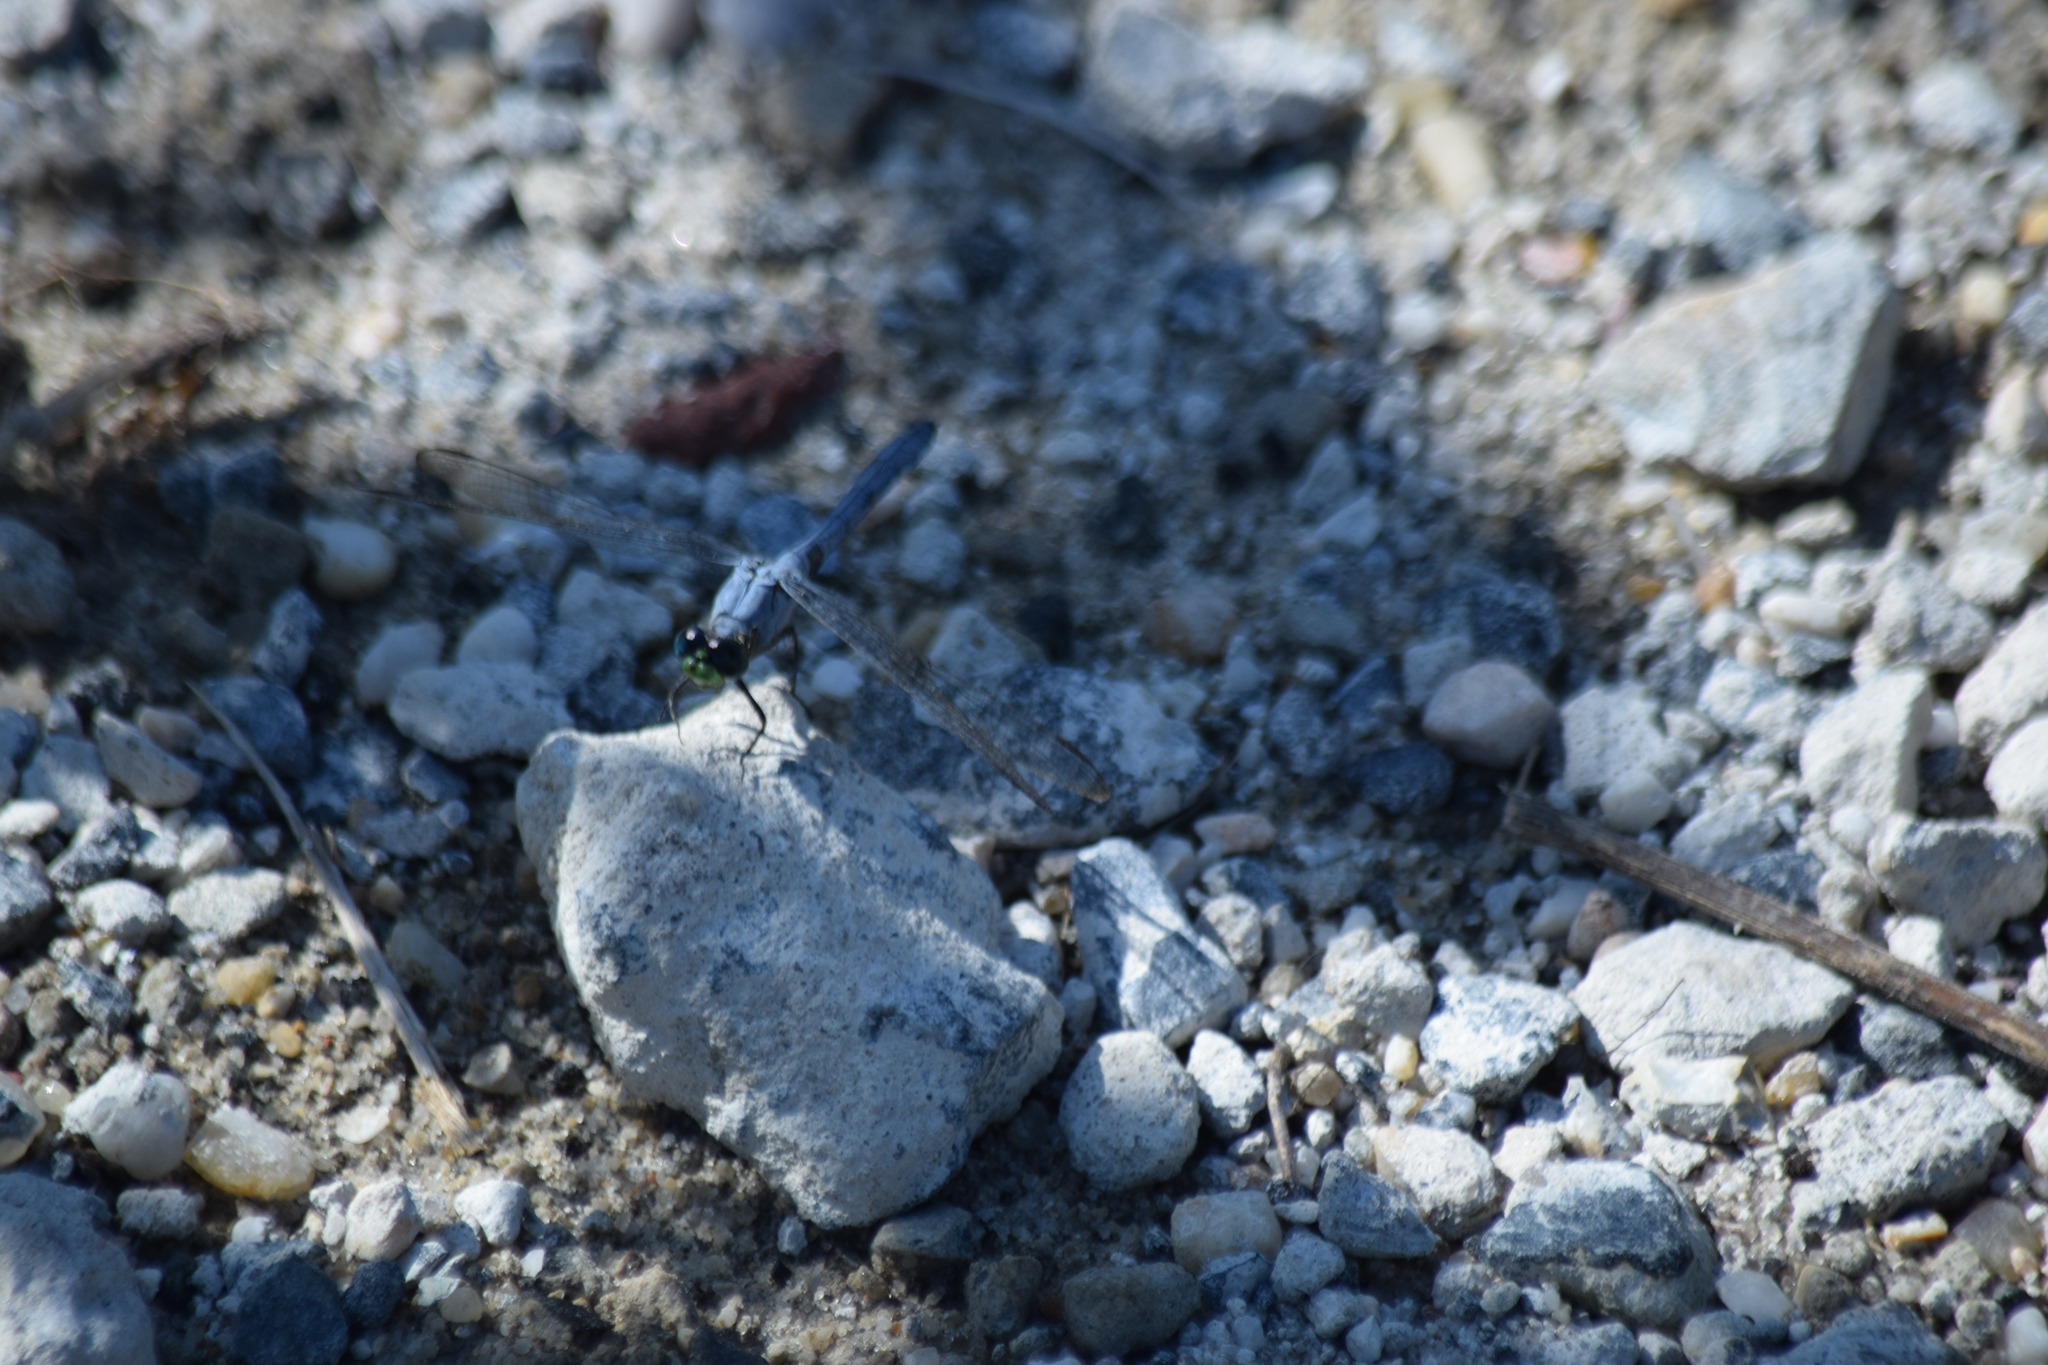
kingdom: Animalia
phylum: Arthropoda
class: Insecta
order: Odonata
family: Libellulidae
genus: Erythemis
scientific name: Erythemis simplicicollis
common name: Eastern pondhawk
